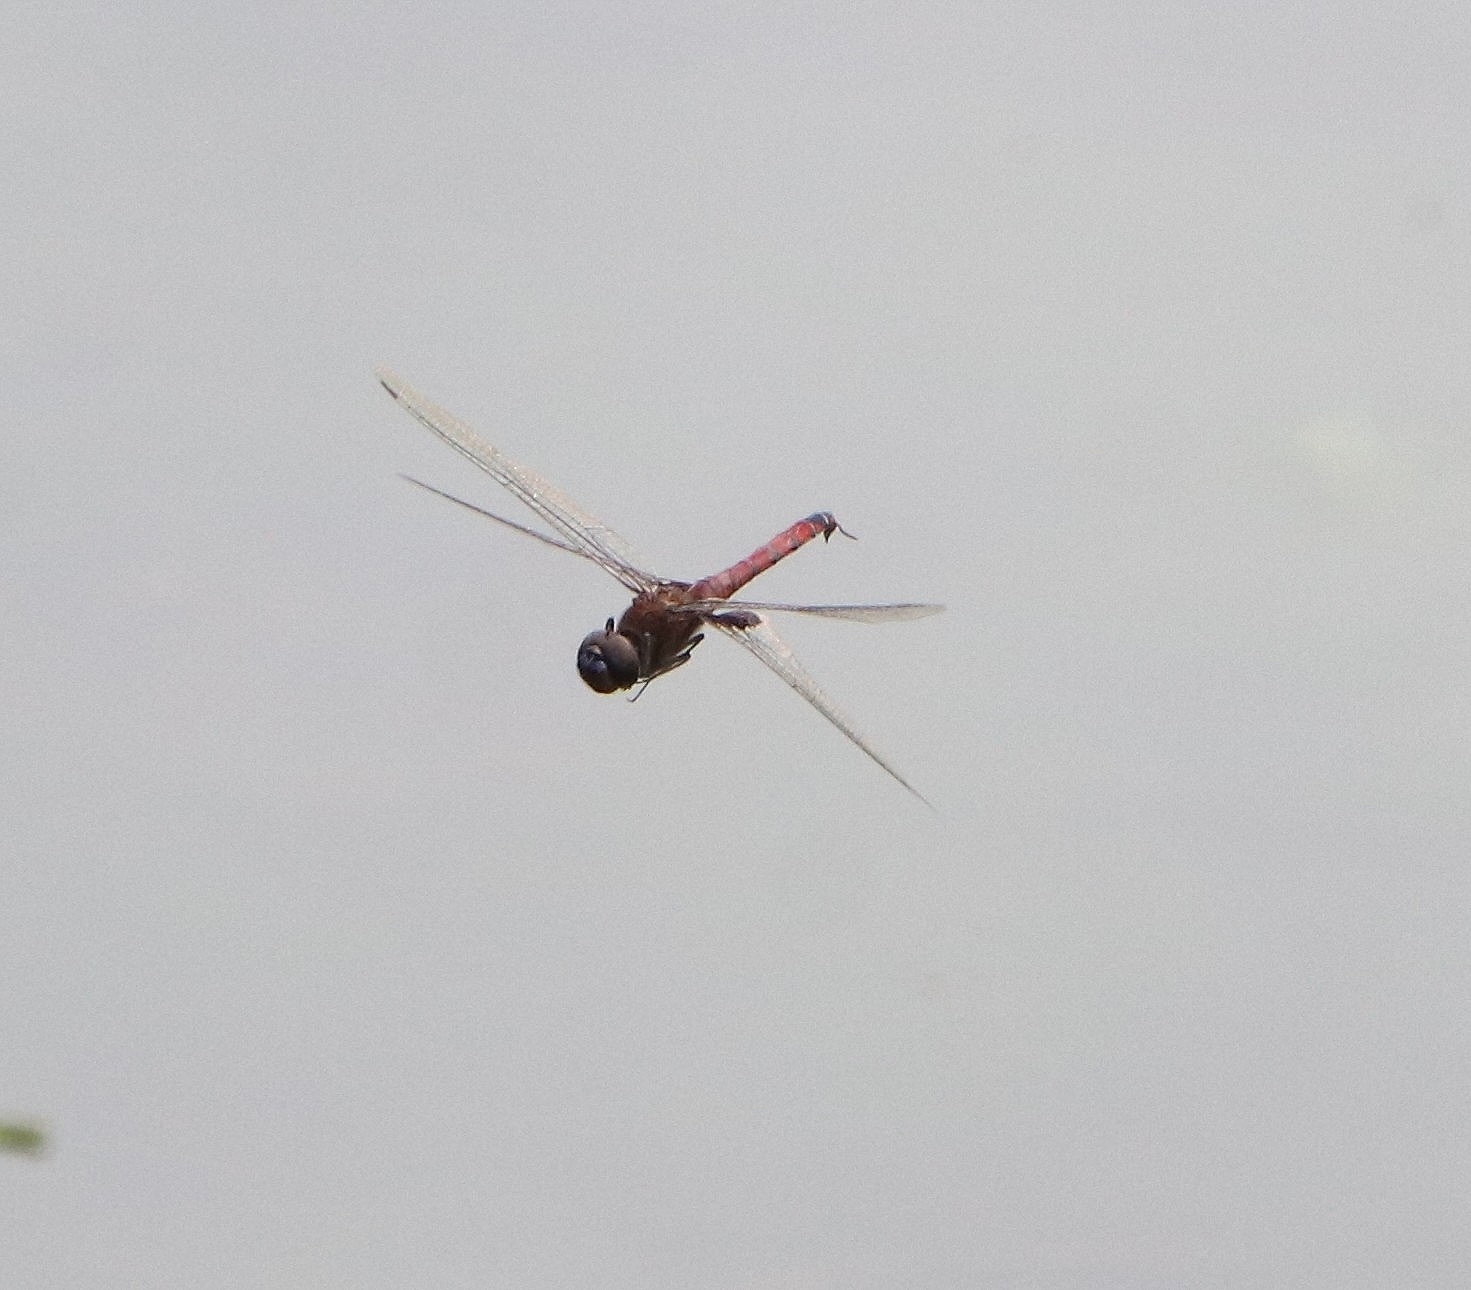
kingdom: Animalia
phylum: Arthropoda
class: Insecta
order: Odonata
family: Libellulidae
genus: Tramea
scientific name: Tramea limbata
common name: Ferruginous glider
